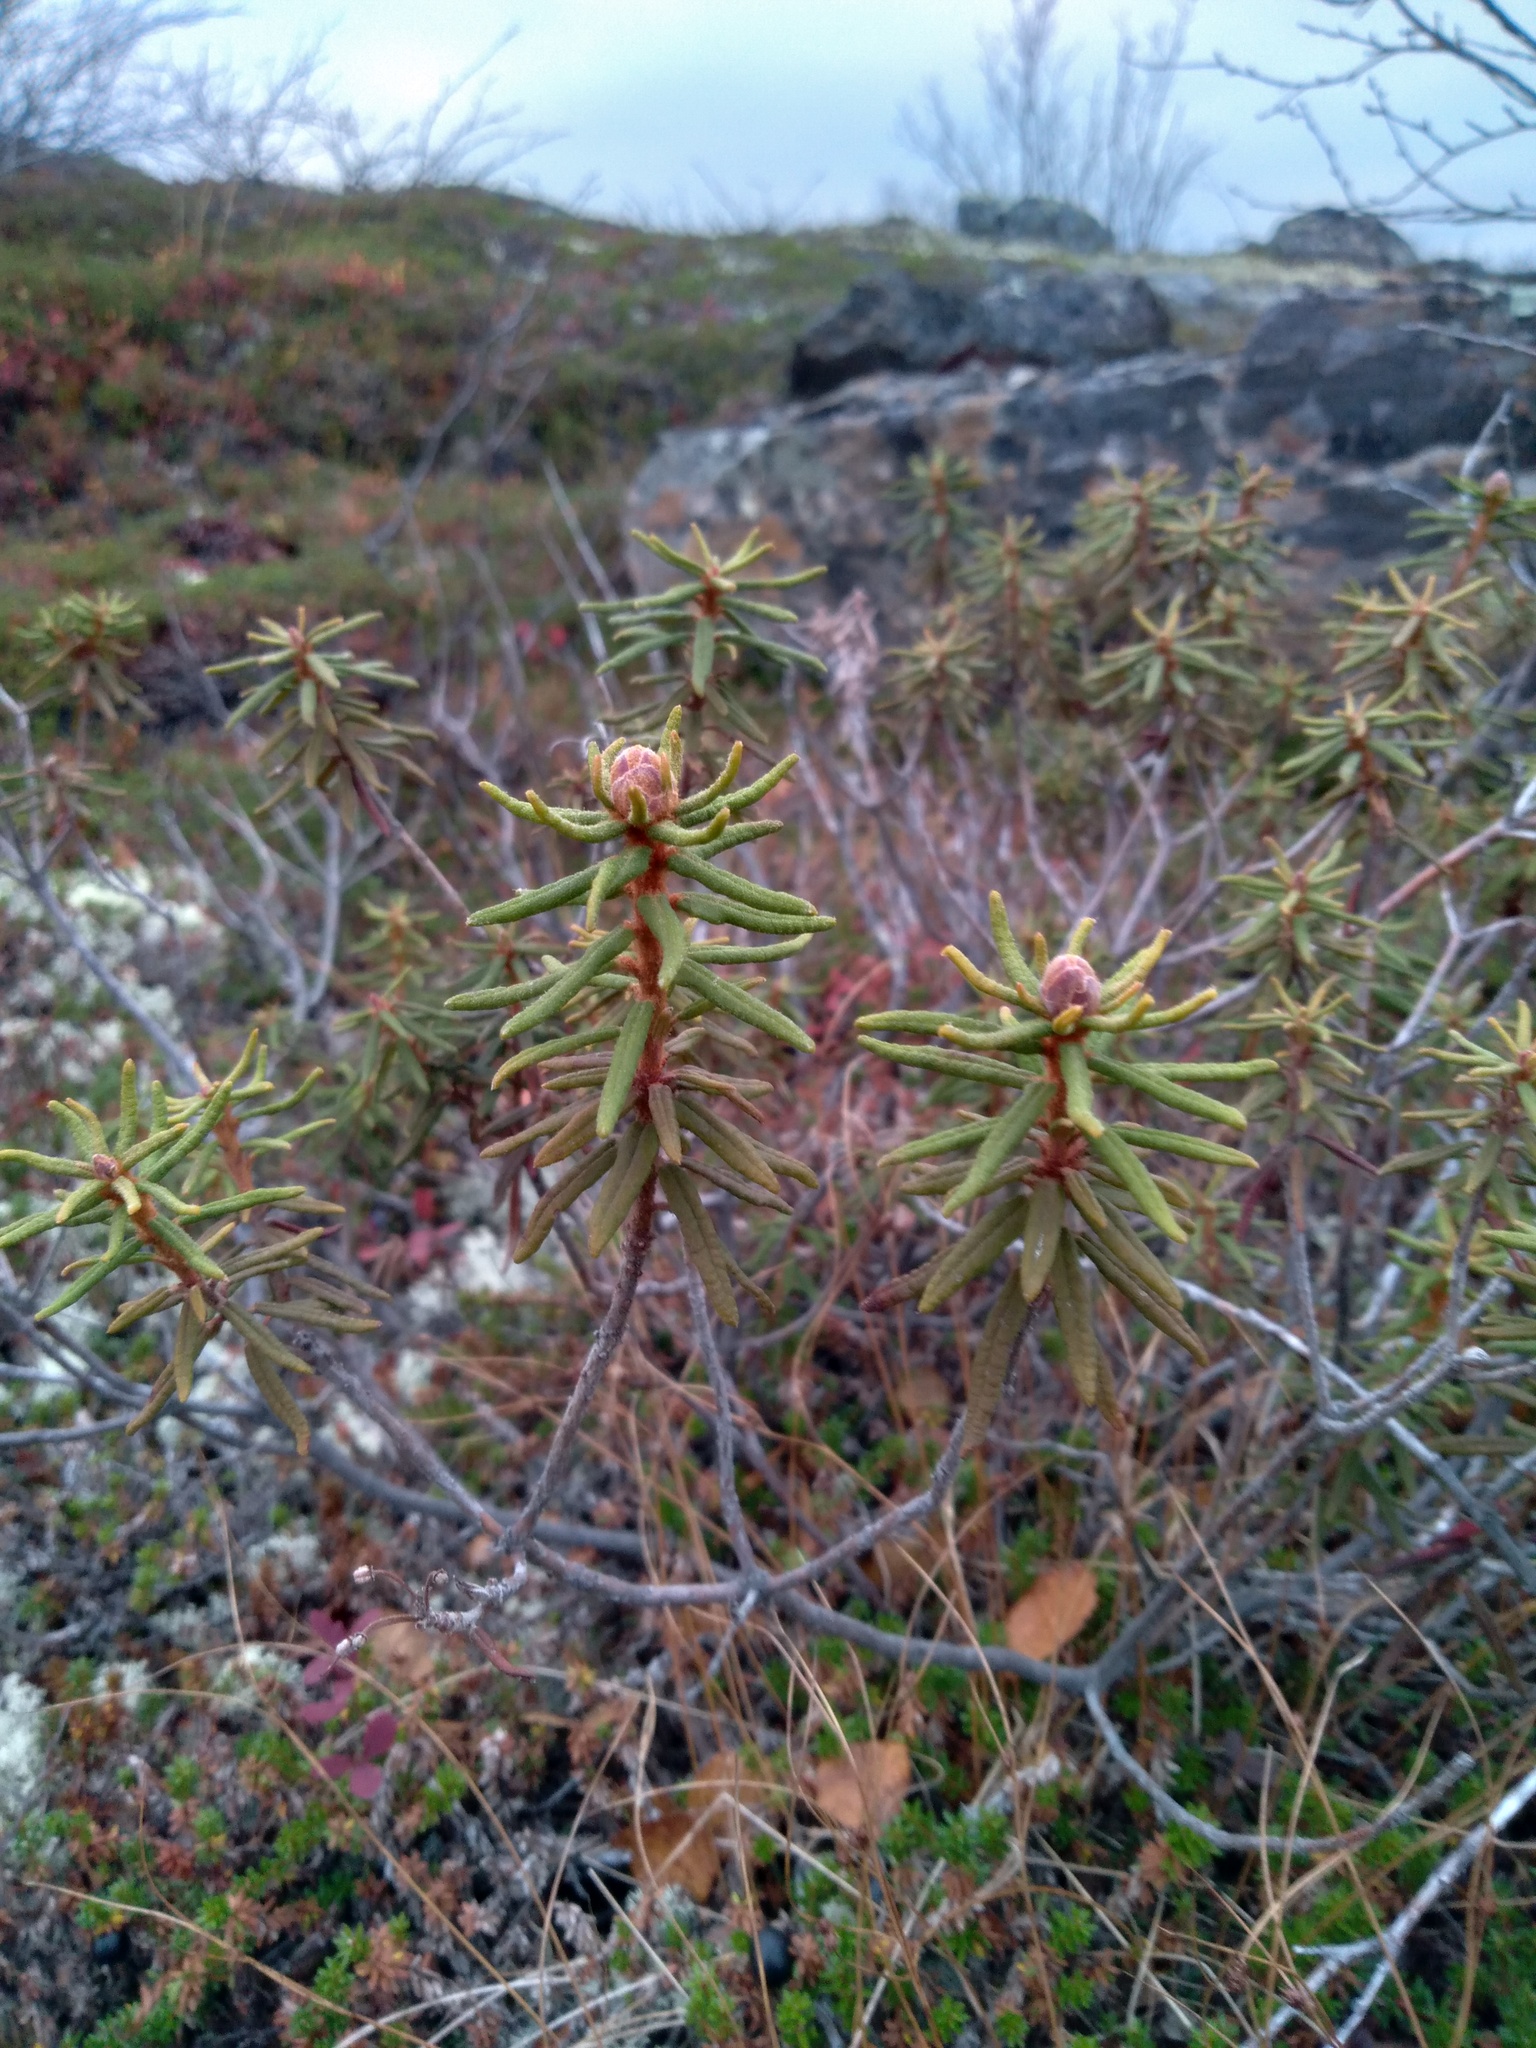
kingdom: Plantae
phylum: Tracheophyta
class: Magnoliopsida
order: Ericales
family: Ericaceae
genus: Rhododendron
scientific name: Rhododendron tomentosum
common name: Marsh labrador tea
